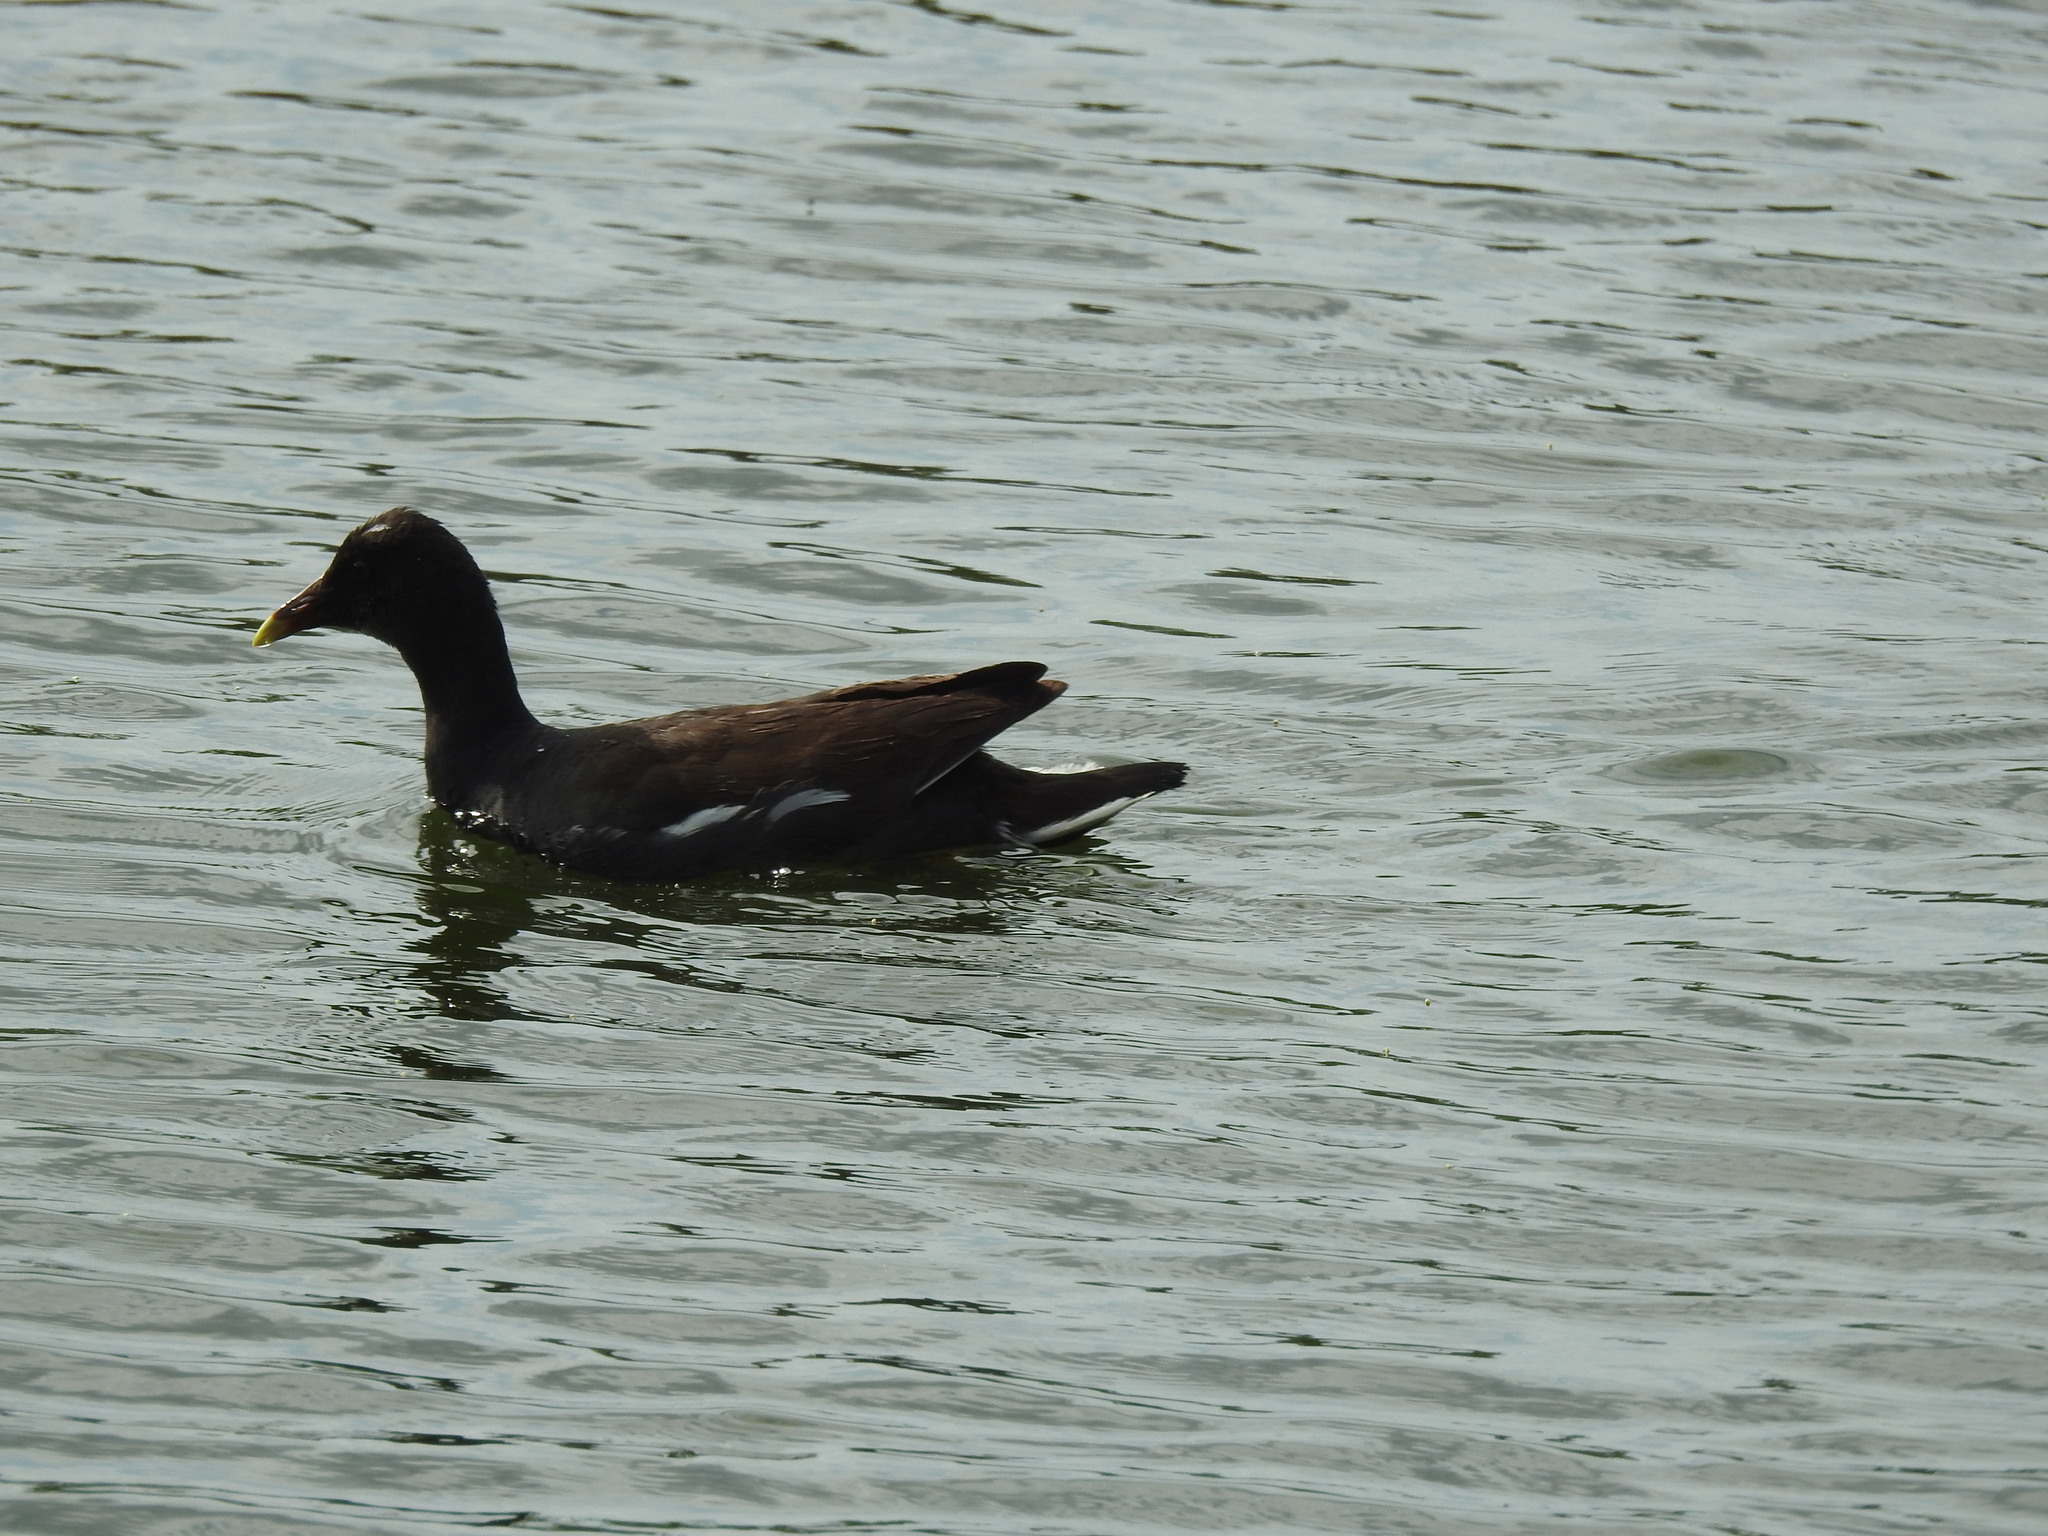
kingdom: Animalia
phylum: Chordata
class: Aves
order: Gruiformes
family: Rallidae
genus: Gallinula
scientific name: Gallinula chloropus
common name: Common moorhen
